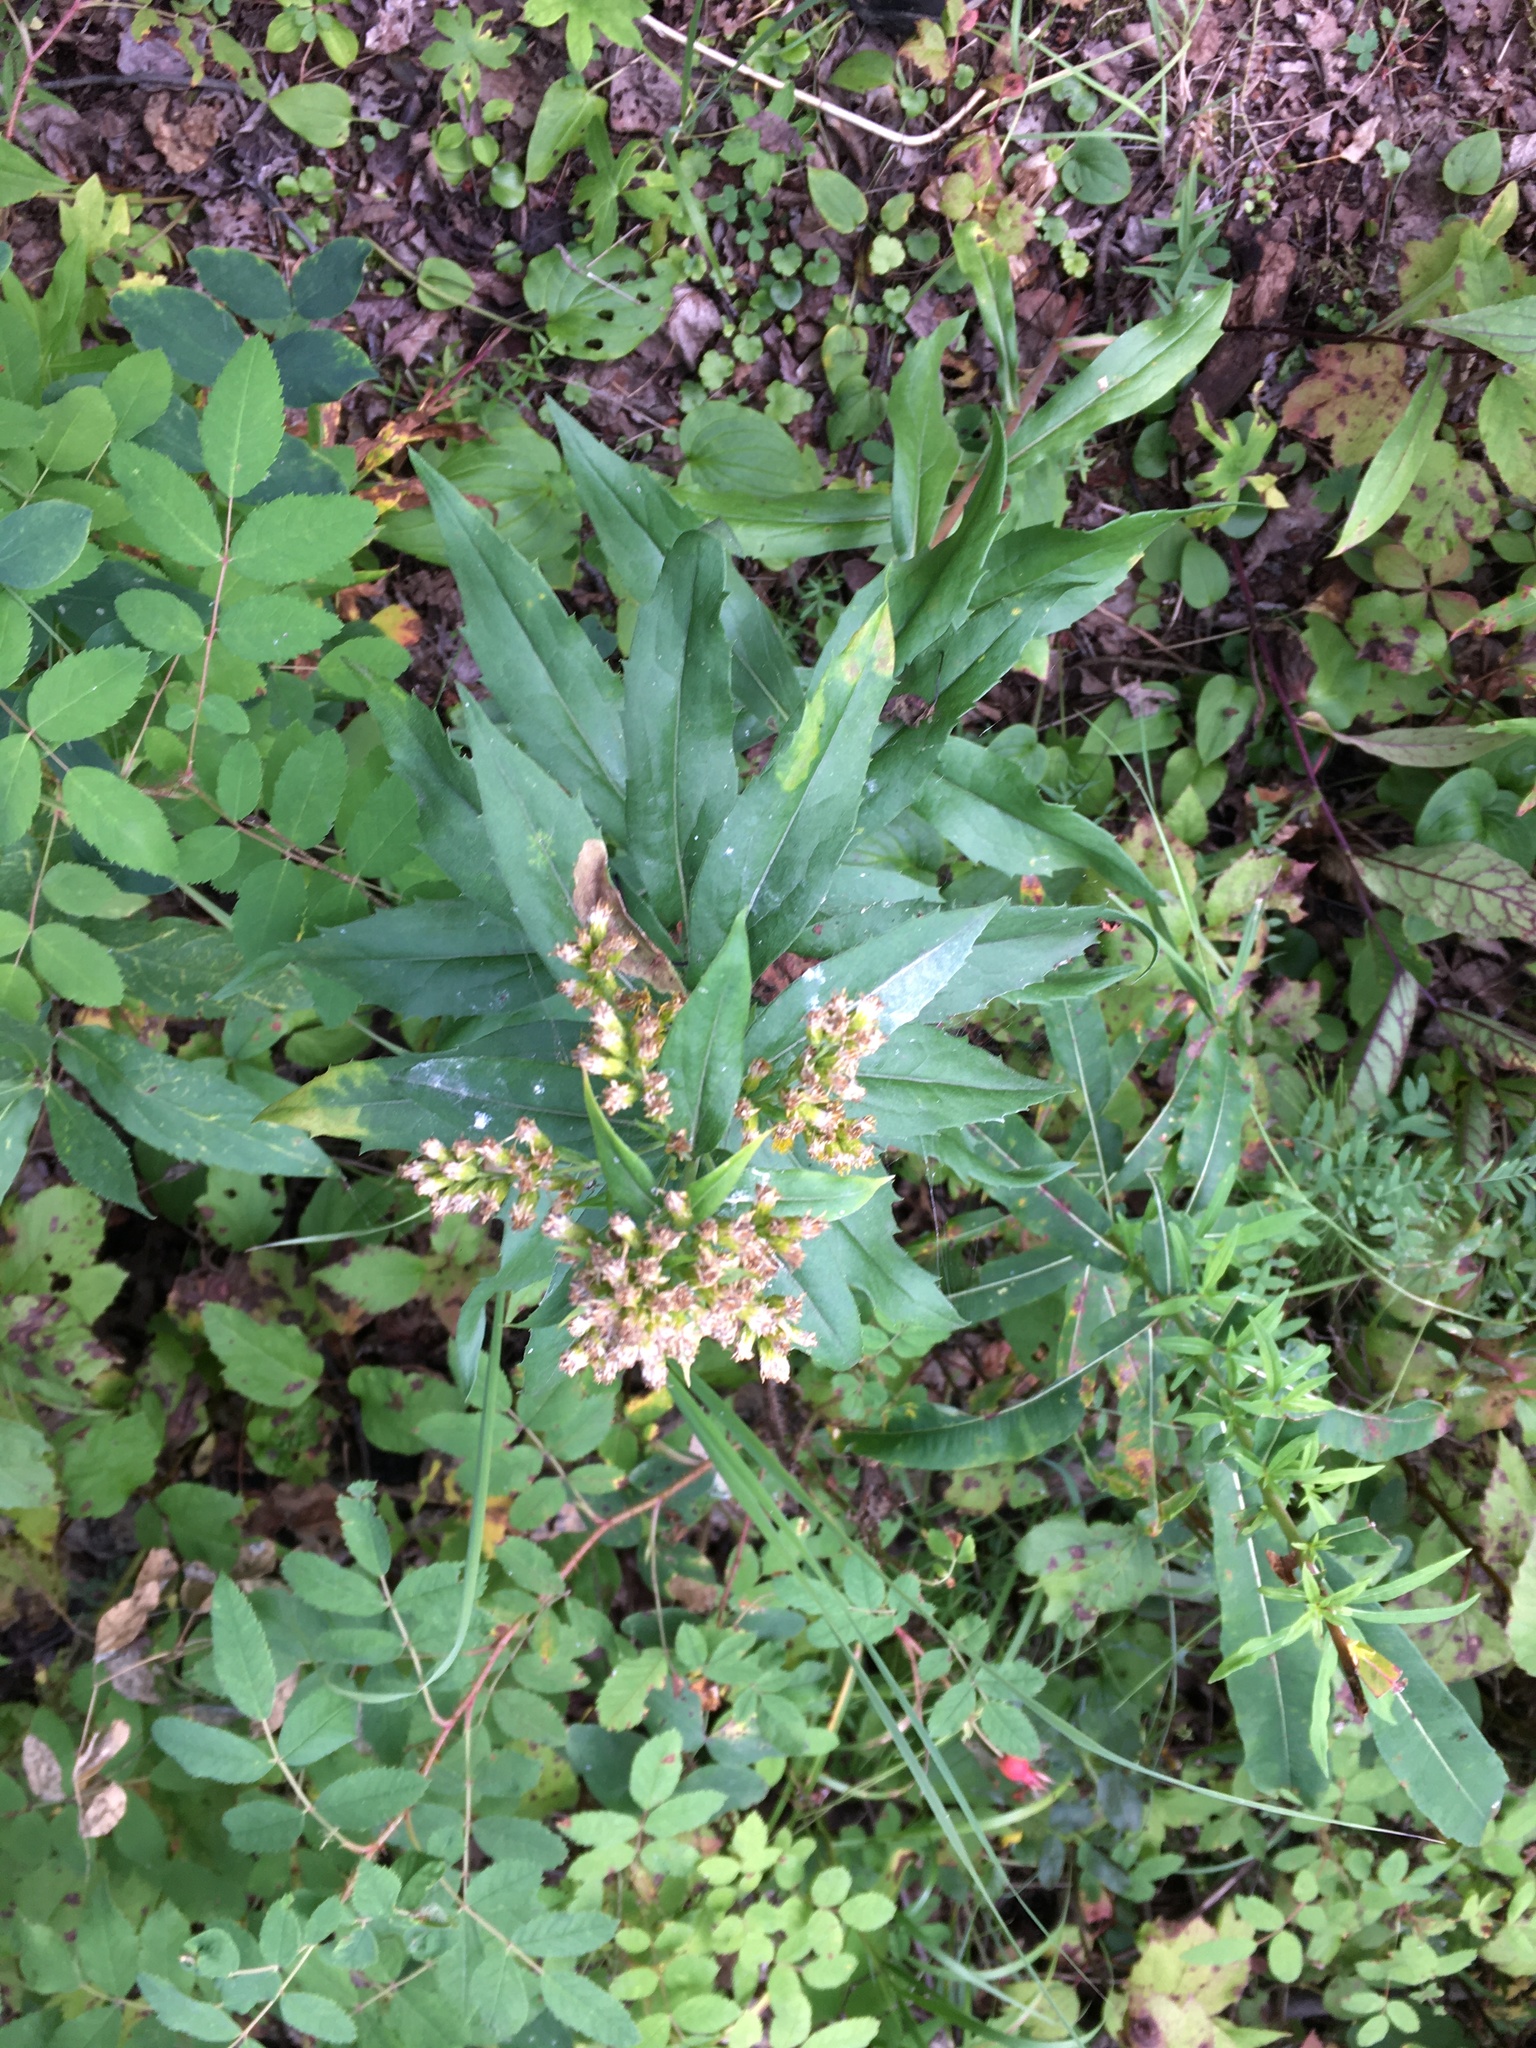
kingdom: Plantae
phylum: Tracheophyta
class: Magnoliopsida
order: Myrtales
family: Onagraceae
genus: Chamaenerion
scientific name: Chamaenerion angustifolium
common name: Fireweed
